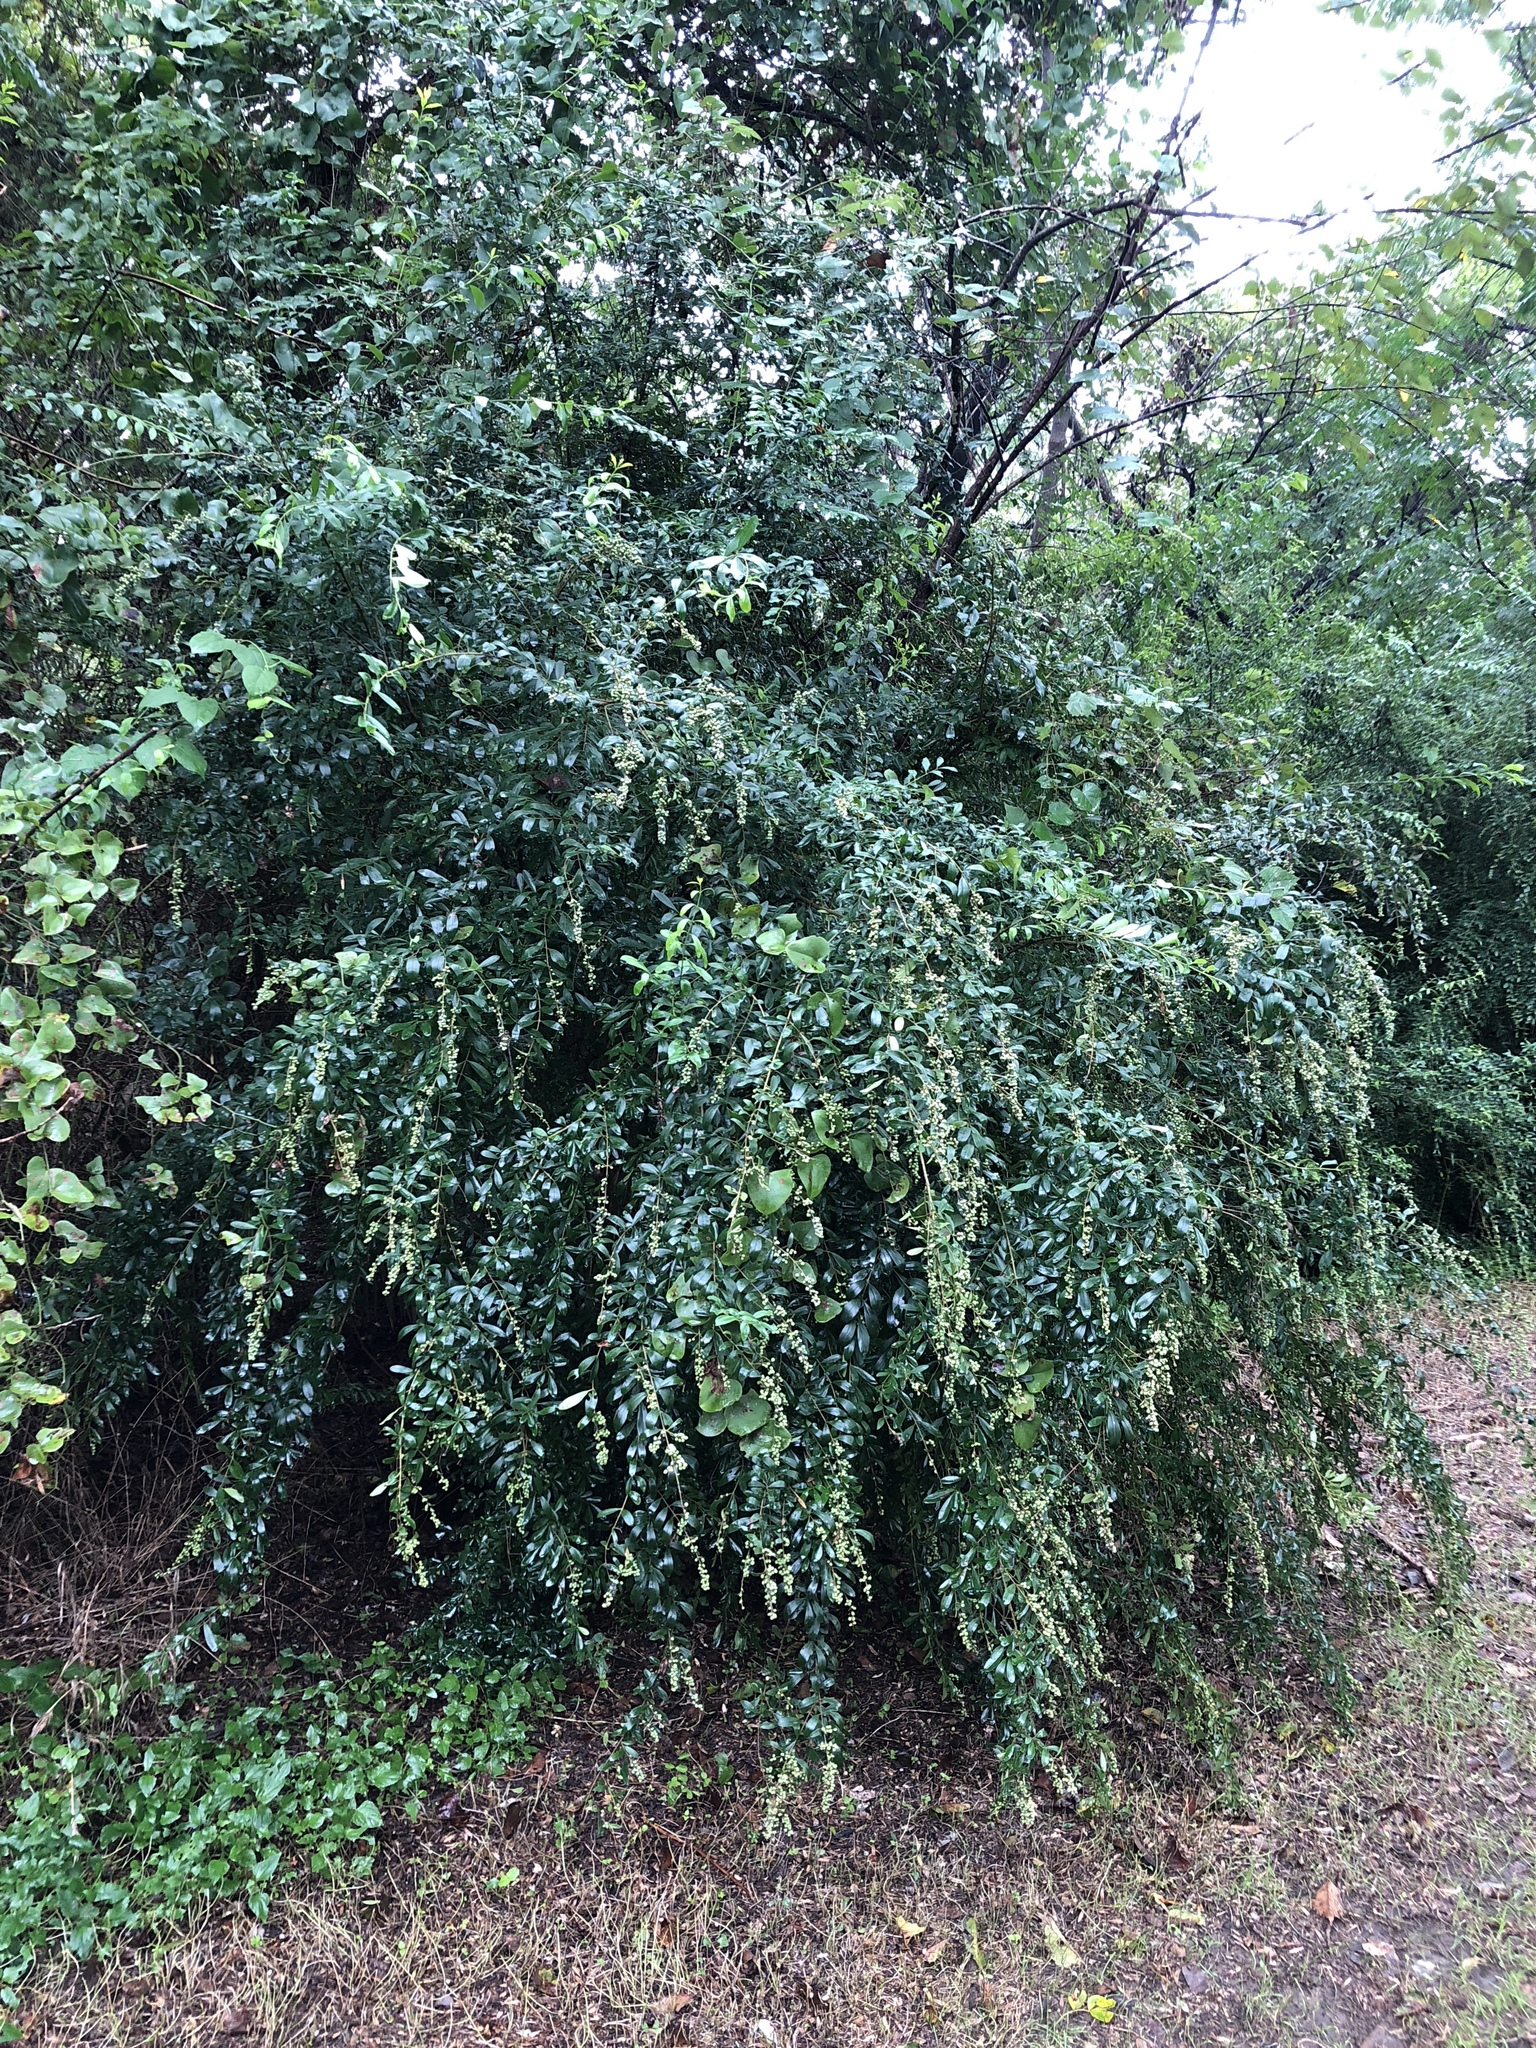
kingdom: Plantae
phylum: Tracheophyta
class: Magnoliopsida
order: Lamiales
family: Oleaceae
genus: Ligustrum
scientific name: Ligustrum quihoui
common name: Waxyleaf privet
